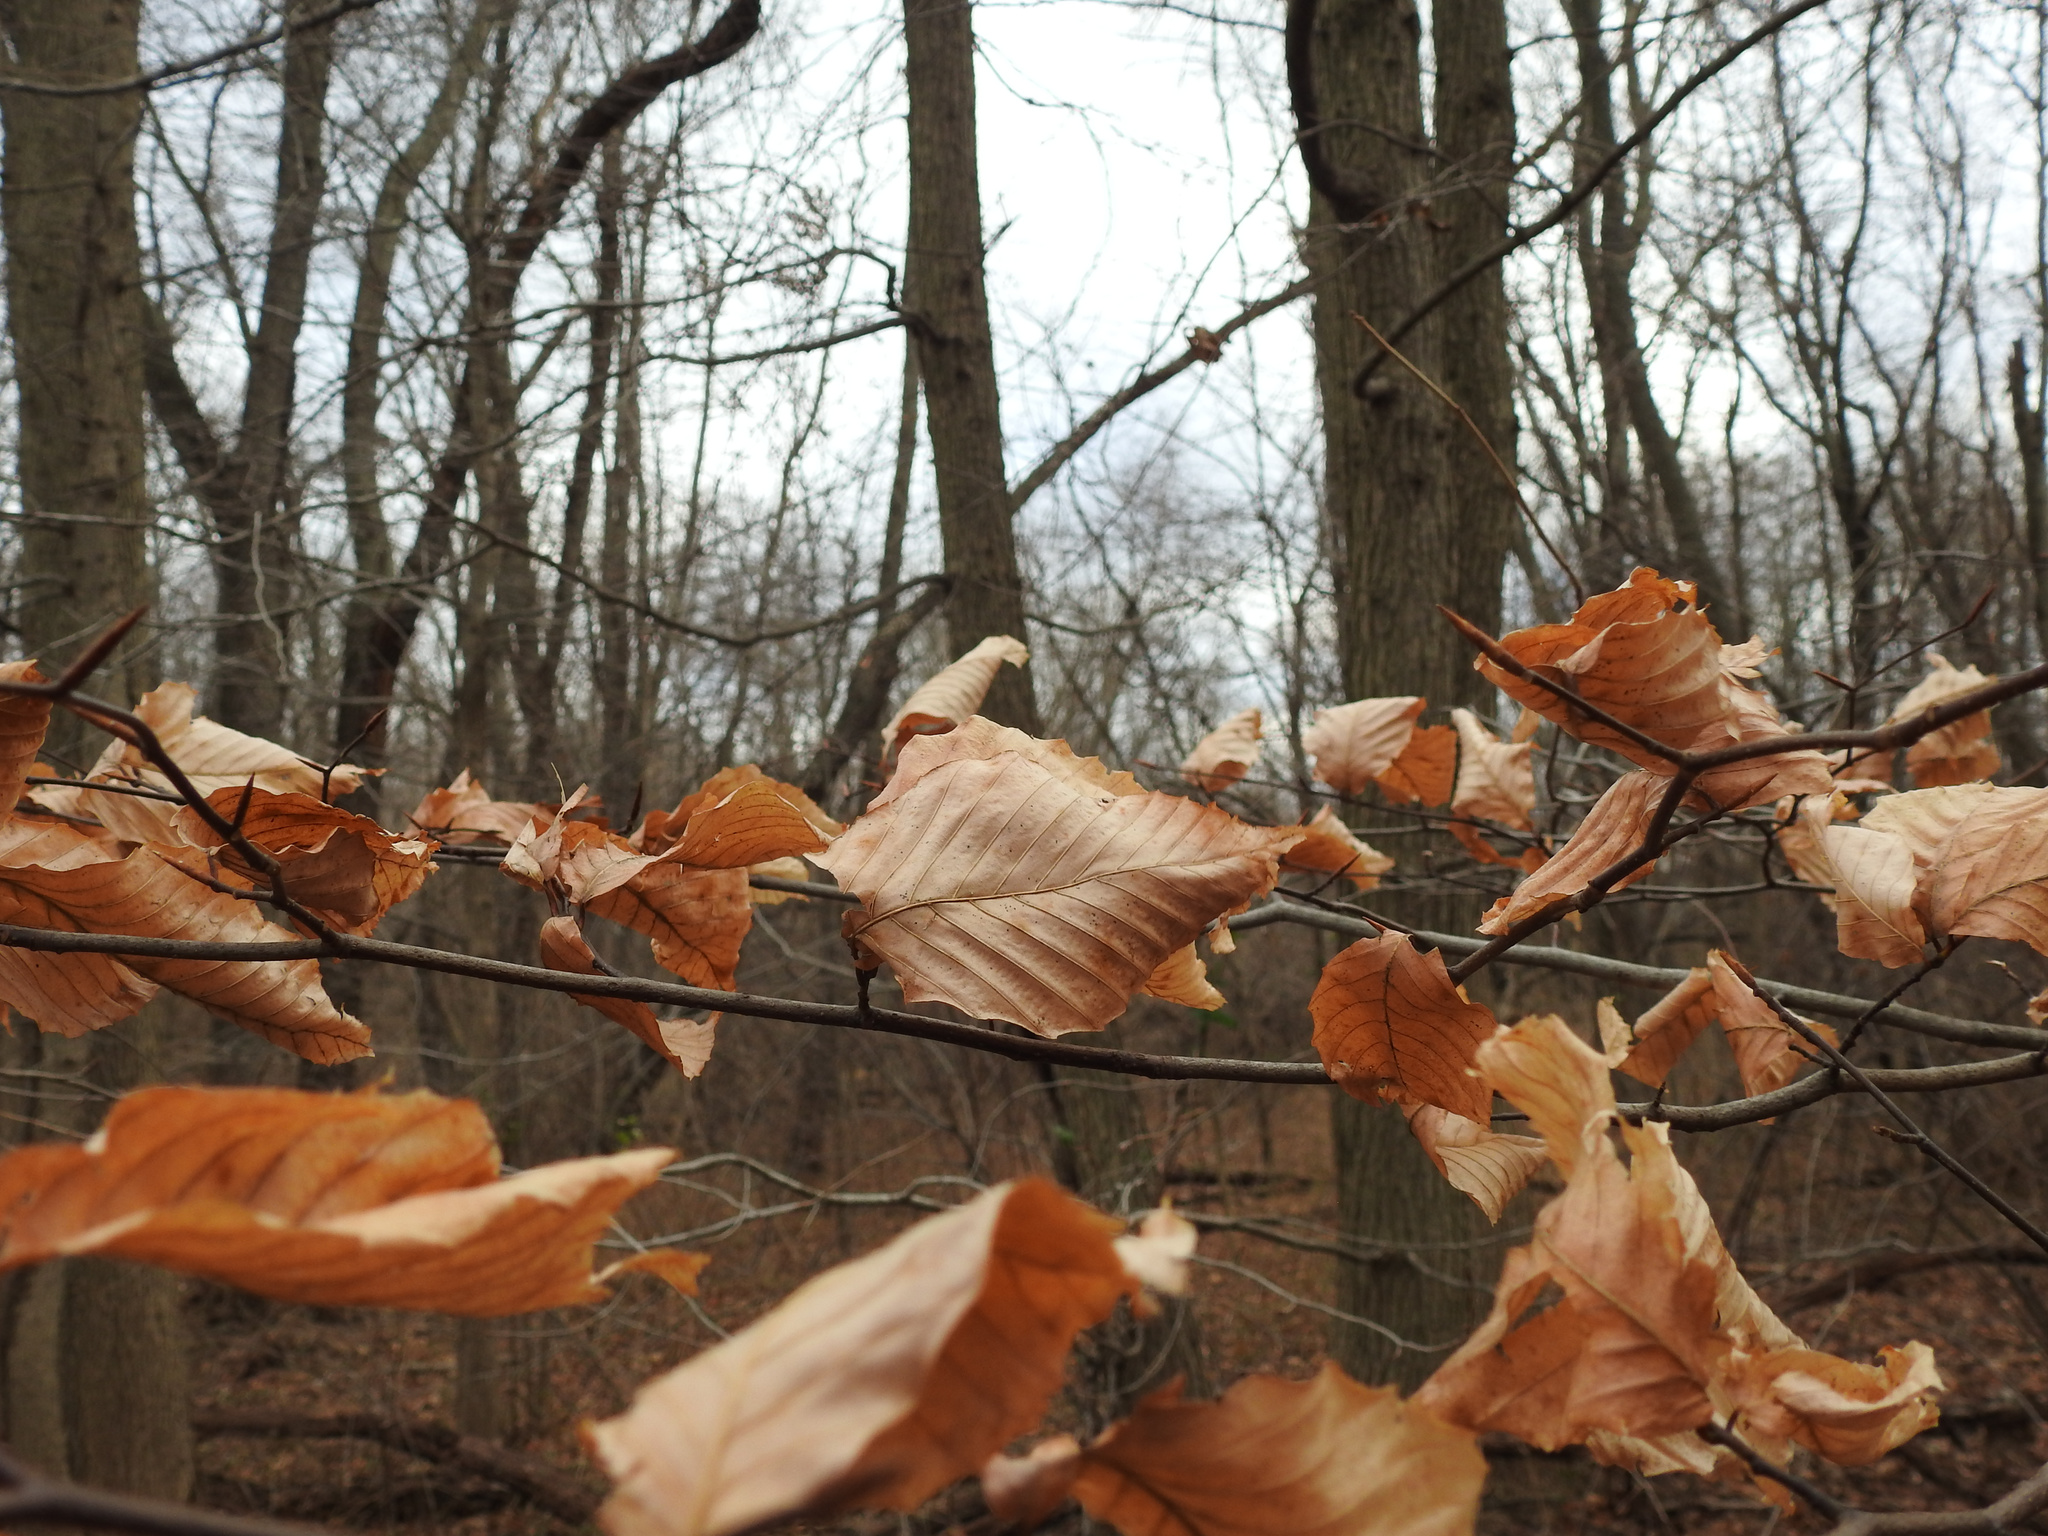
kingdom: Plantae
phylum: Tracheophyta
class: Magnoliopsida
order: Fagales
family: Fagaceae
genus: Fagus
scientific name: Fagus grandifolia
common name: American beech
